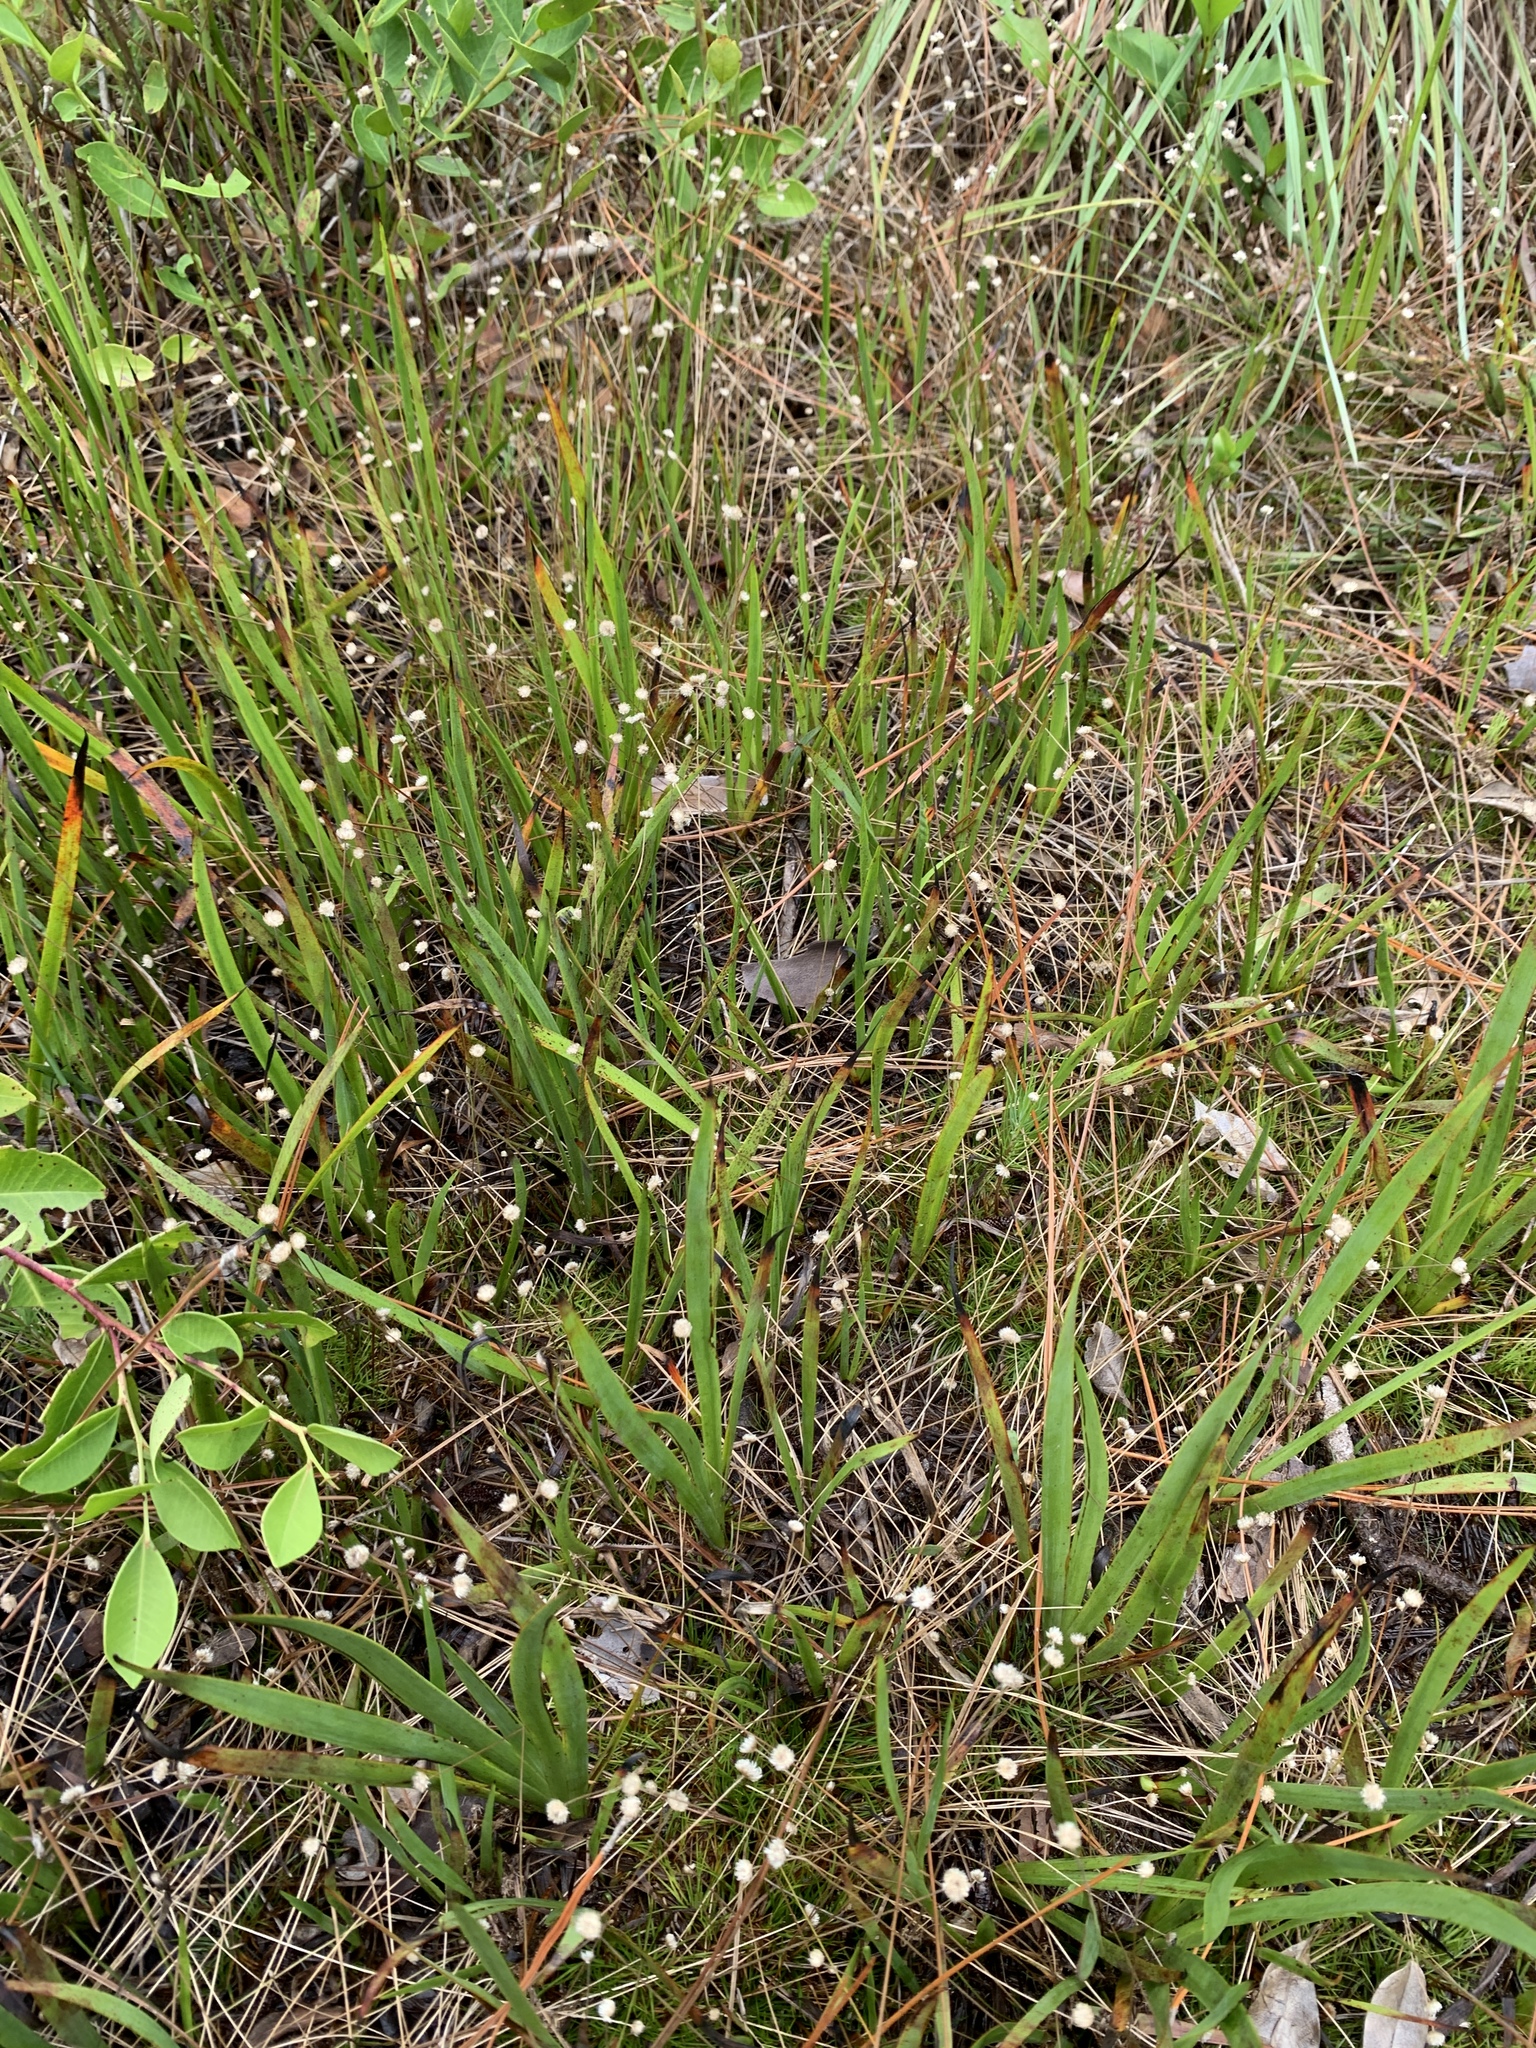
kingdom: Plantae
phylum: Tracheophyta
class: Liliopsida
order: Poales
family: Eriocaulaceae
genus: Syngonanthus
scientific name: Syngonanthus flavidulus
